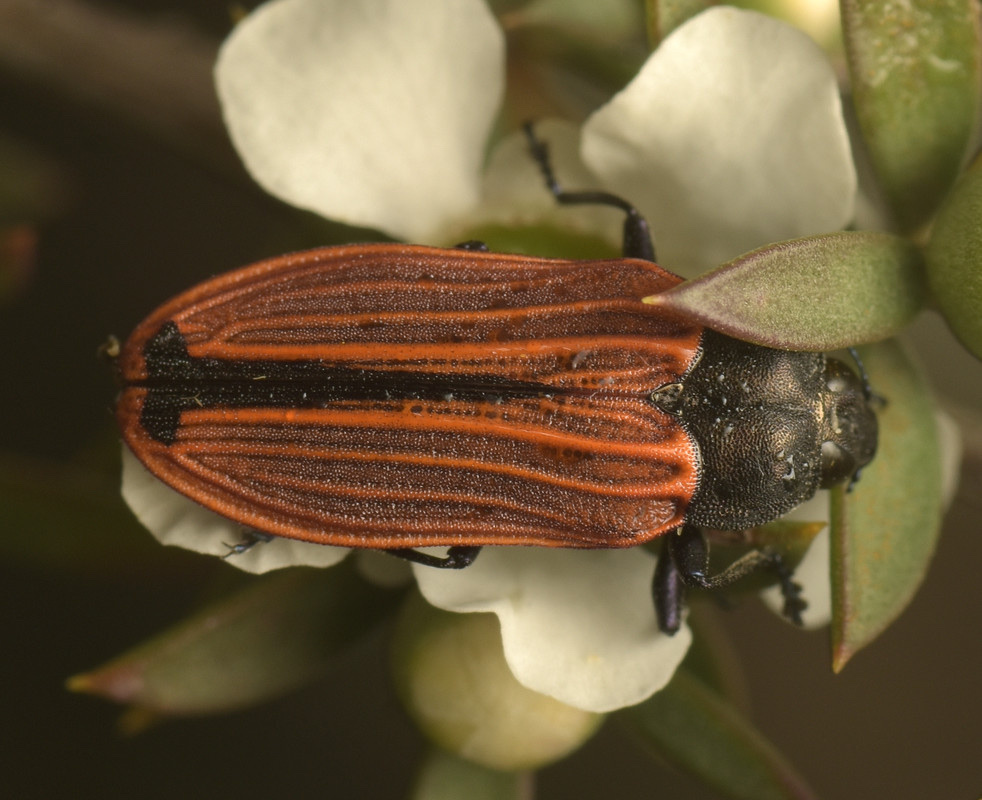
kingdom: Animalia
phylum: Arthropoda
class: Insecta
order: Coleoptera
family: Buprestidae
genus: Castiarina
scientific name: Castiarina erythroptera
